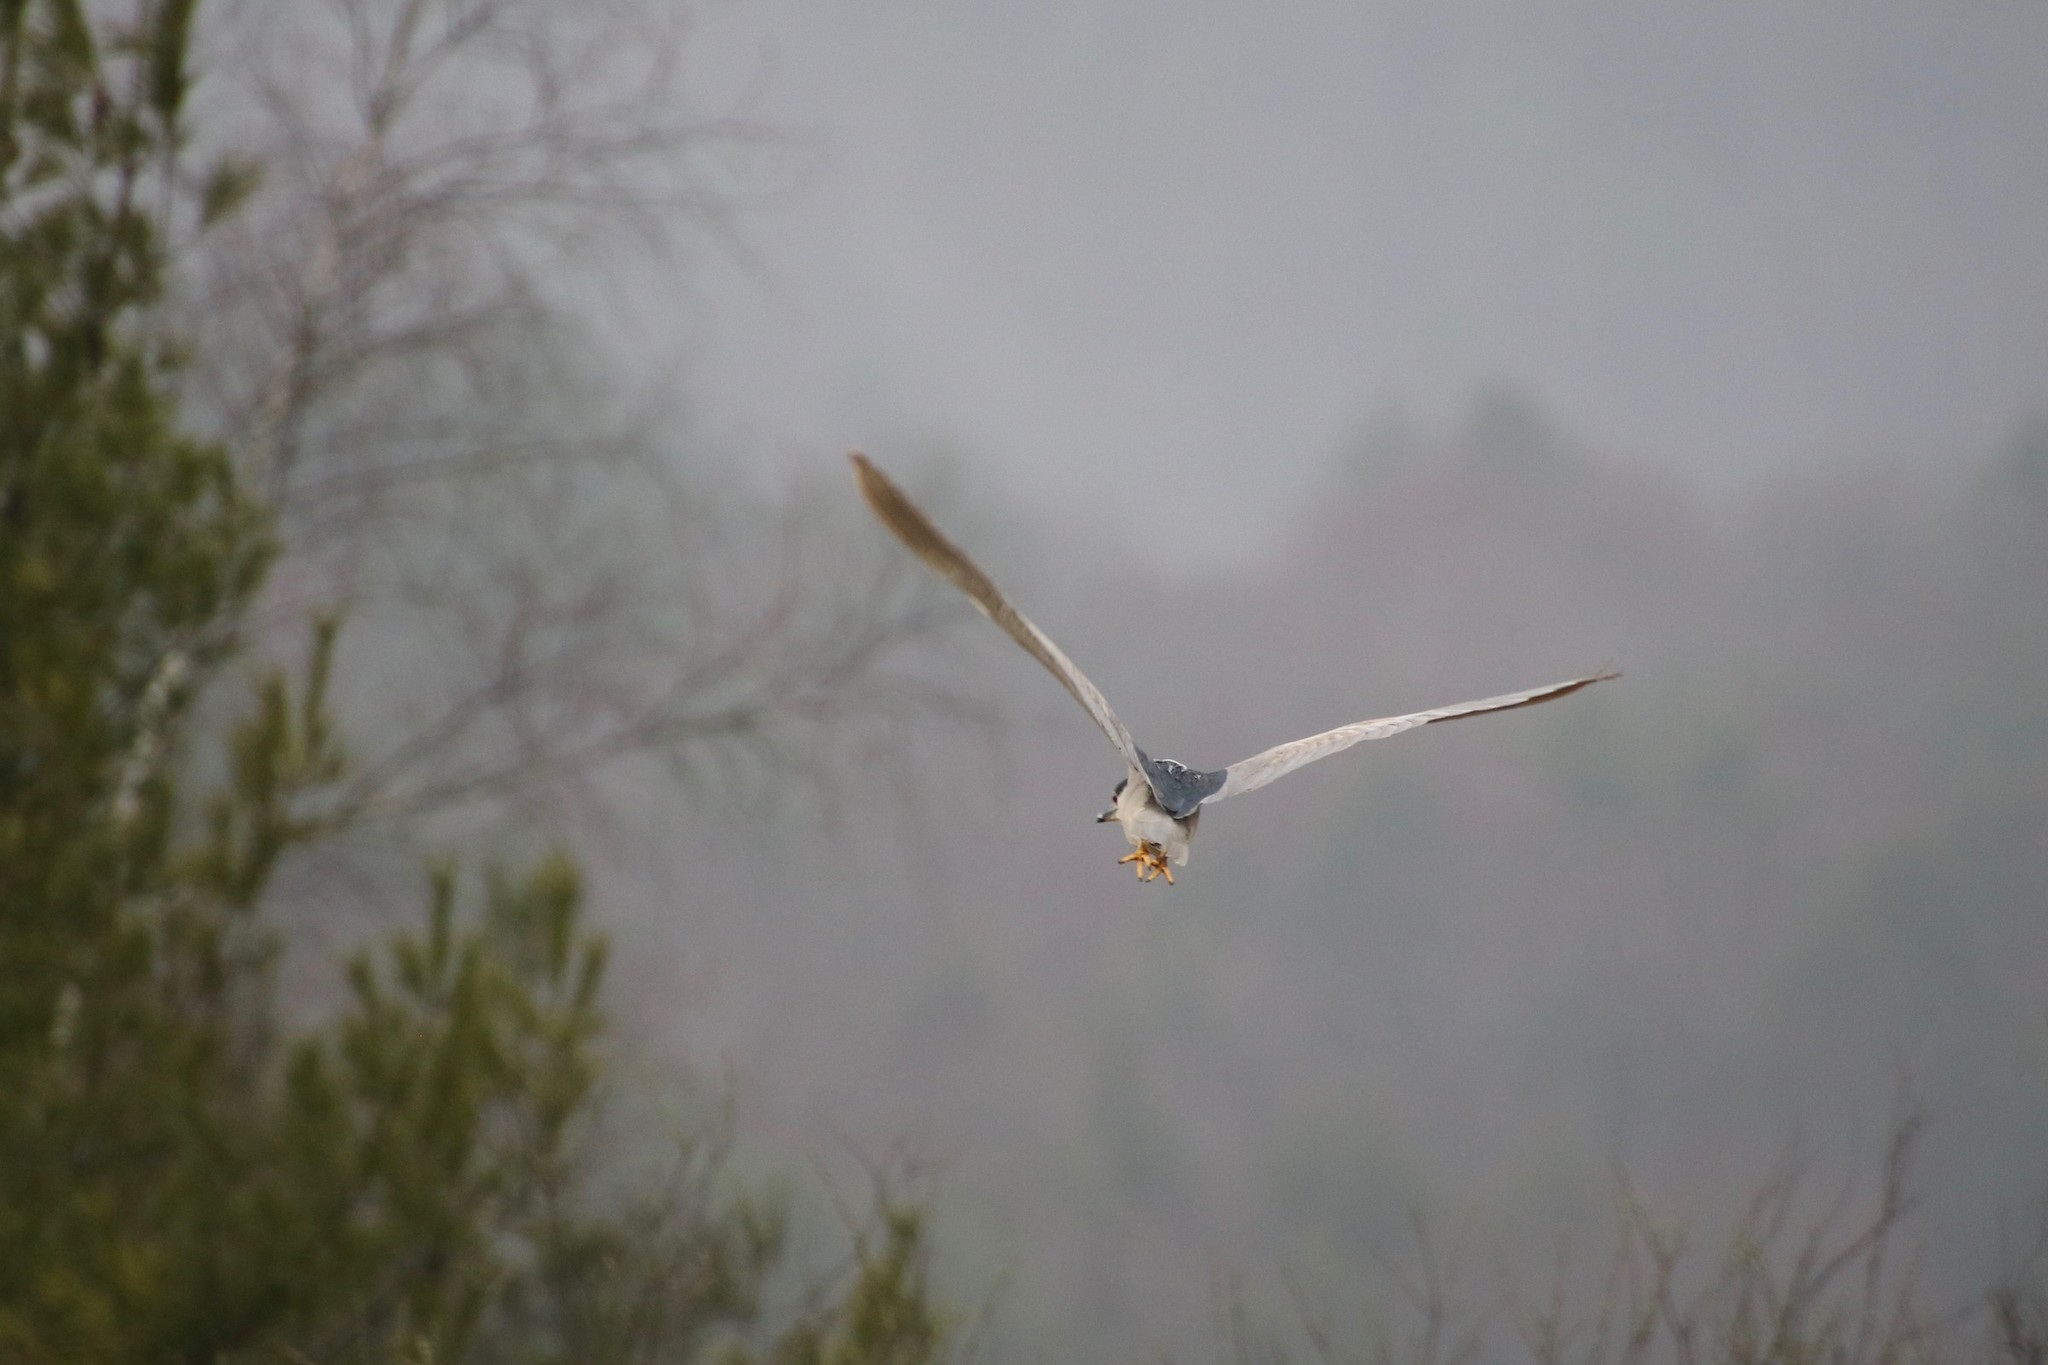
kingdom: Animalia
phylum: Chordata
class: Aves
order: Pelecaniformes
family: Ardeidae
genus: Nycticorax
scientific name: Nycticorax nycticorax
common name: Black-crowned night heron
